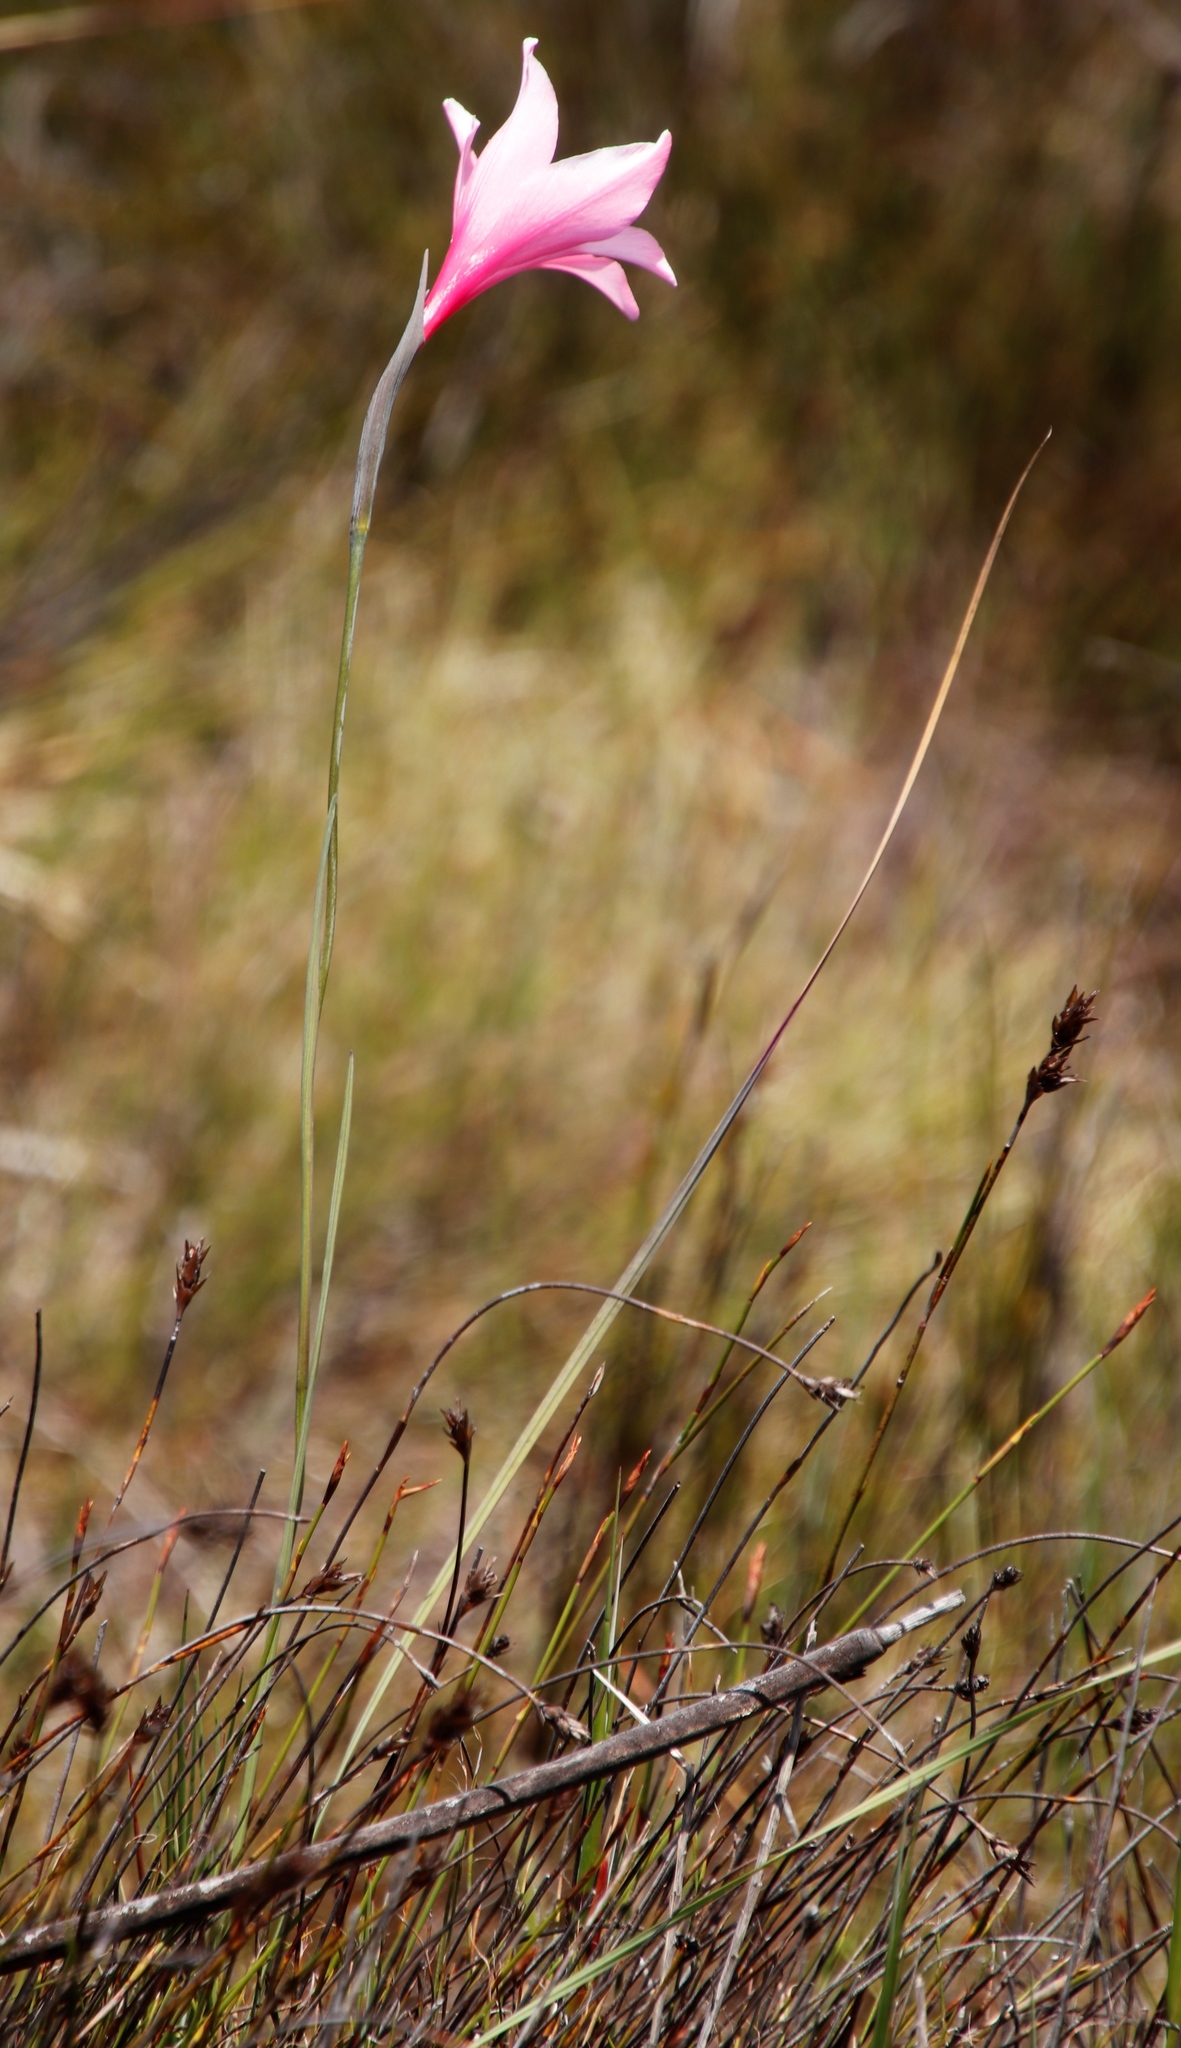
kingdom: Plantae
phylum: Tracheophyta
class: Liliopsida
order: Asparagales
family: Iridaceae
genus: Gladiolus
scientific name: Gladiolus pappei
